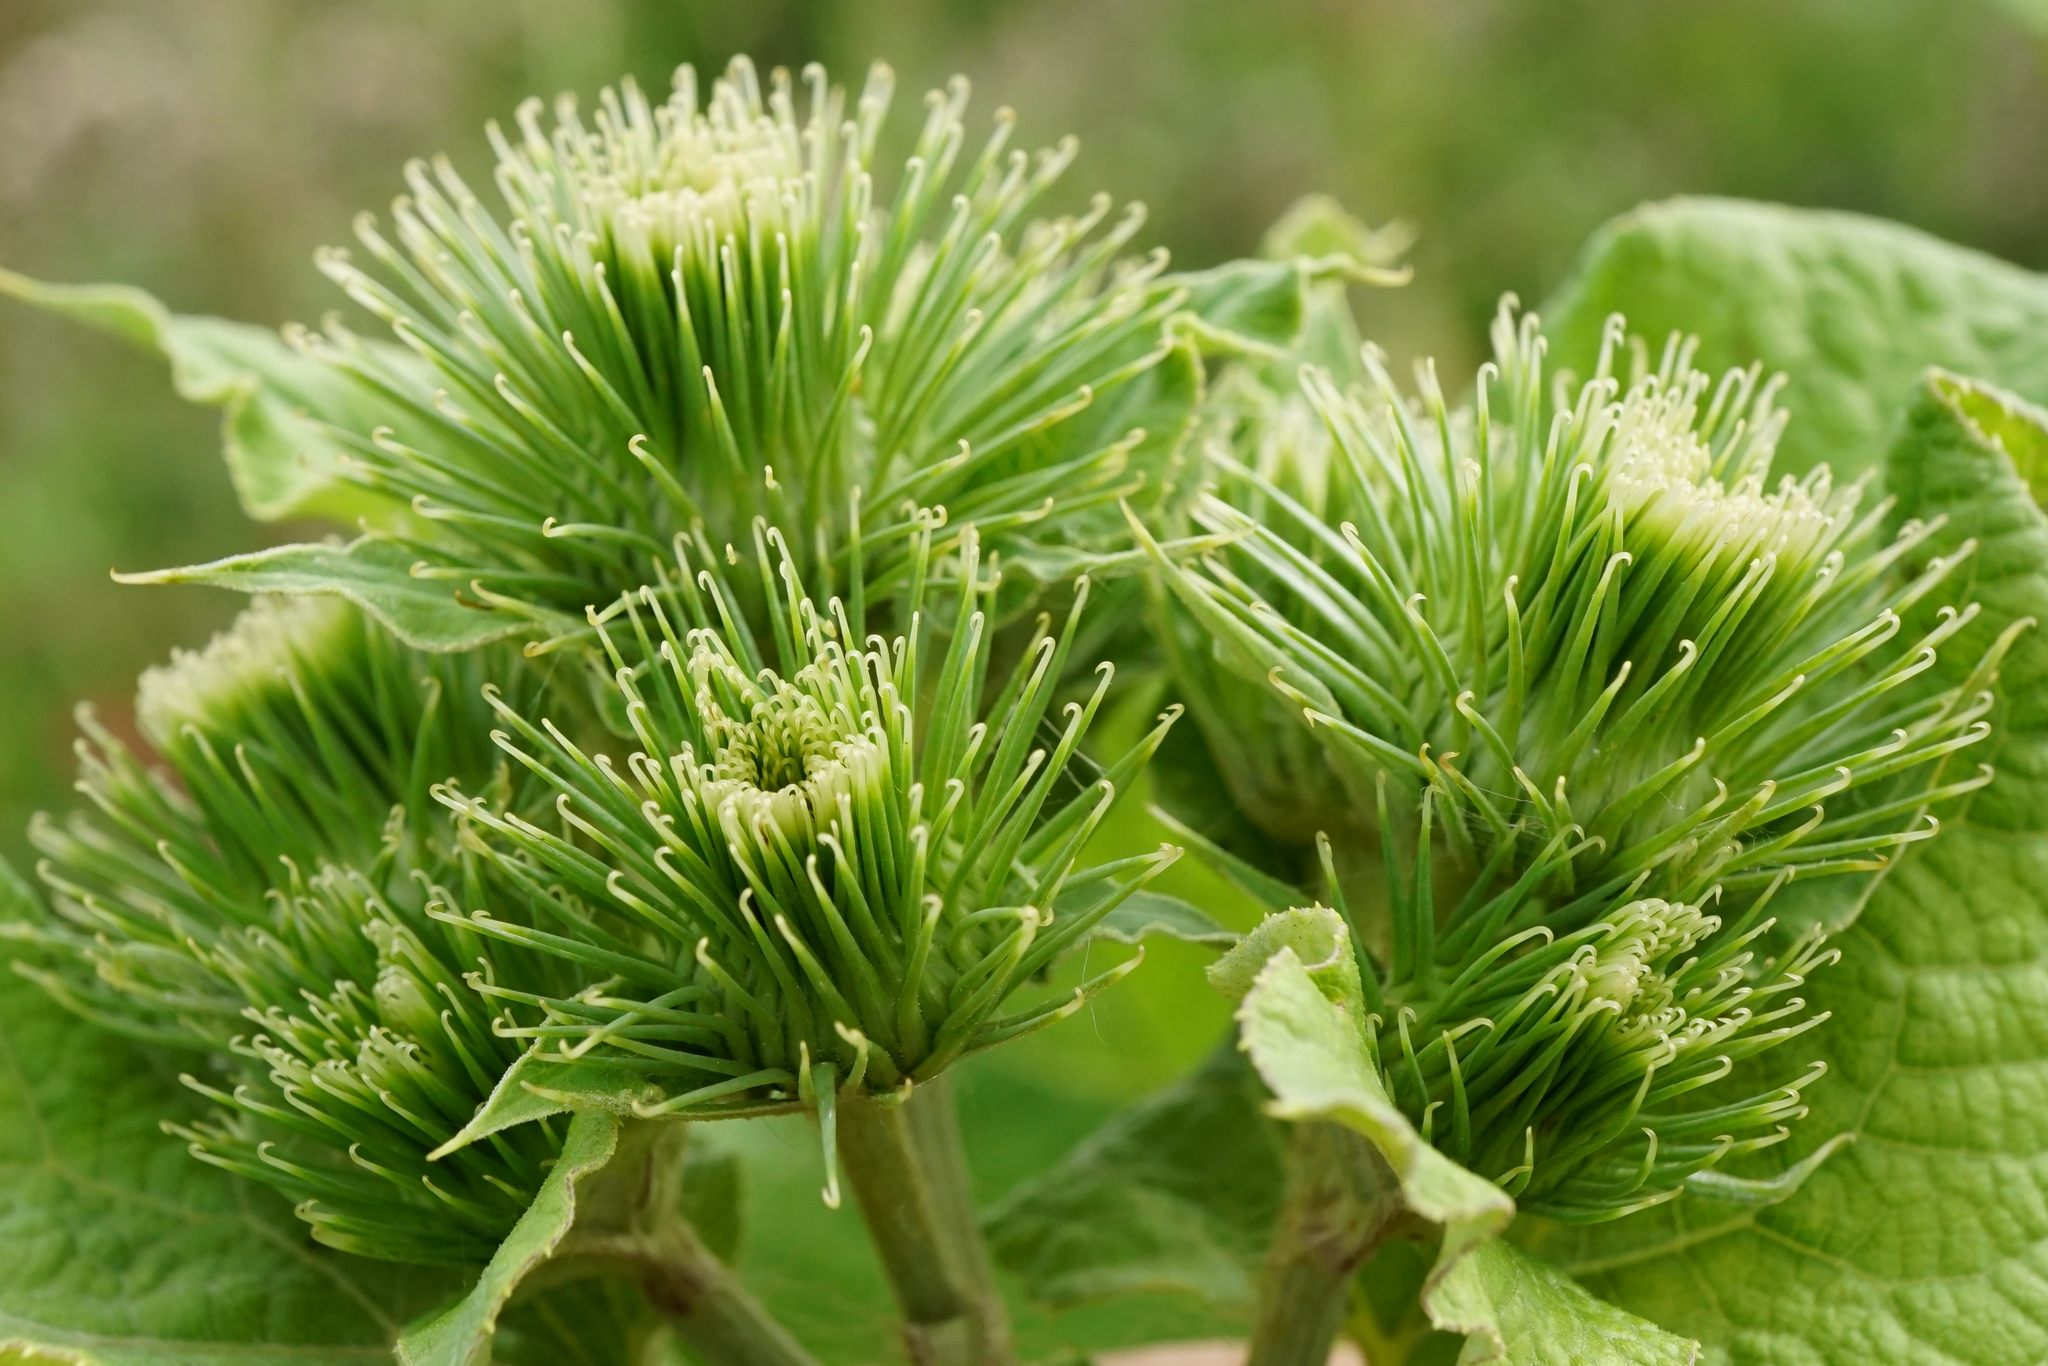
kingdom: Plantae
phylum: Tracheophyta
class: Magnoliopsida
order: Asterales
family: Asteraceae
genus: Arctium
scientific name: Arctium lappa
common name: Greater burdock
